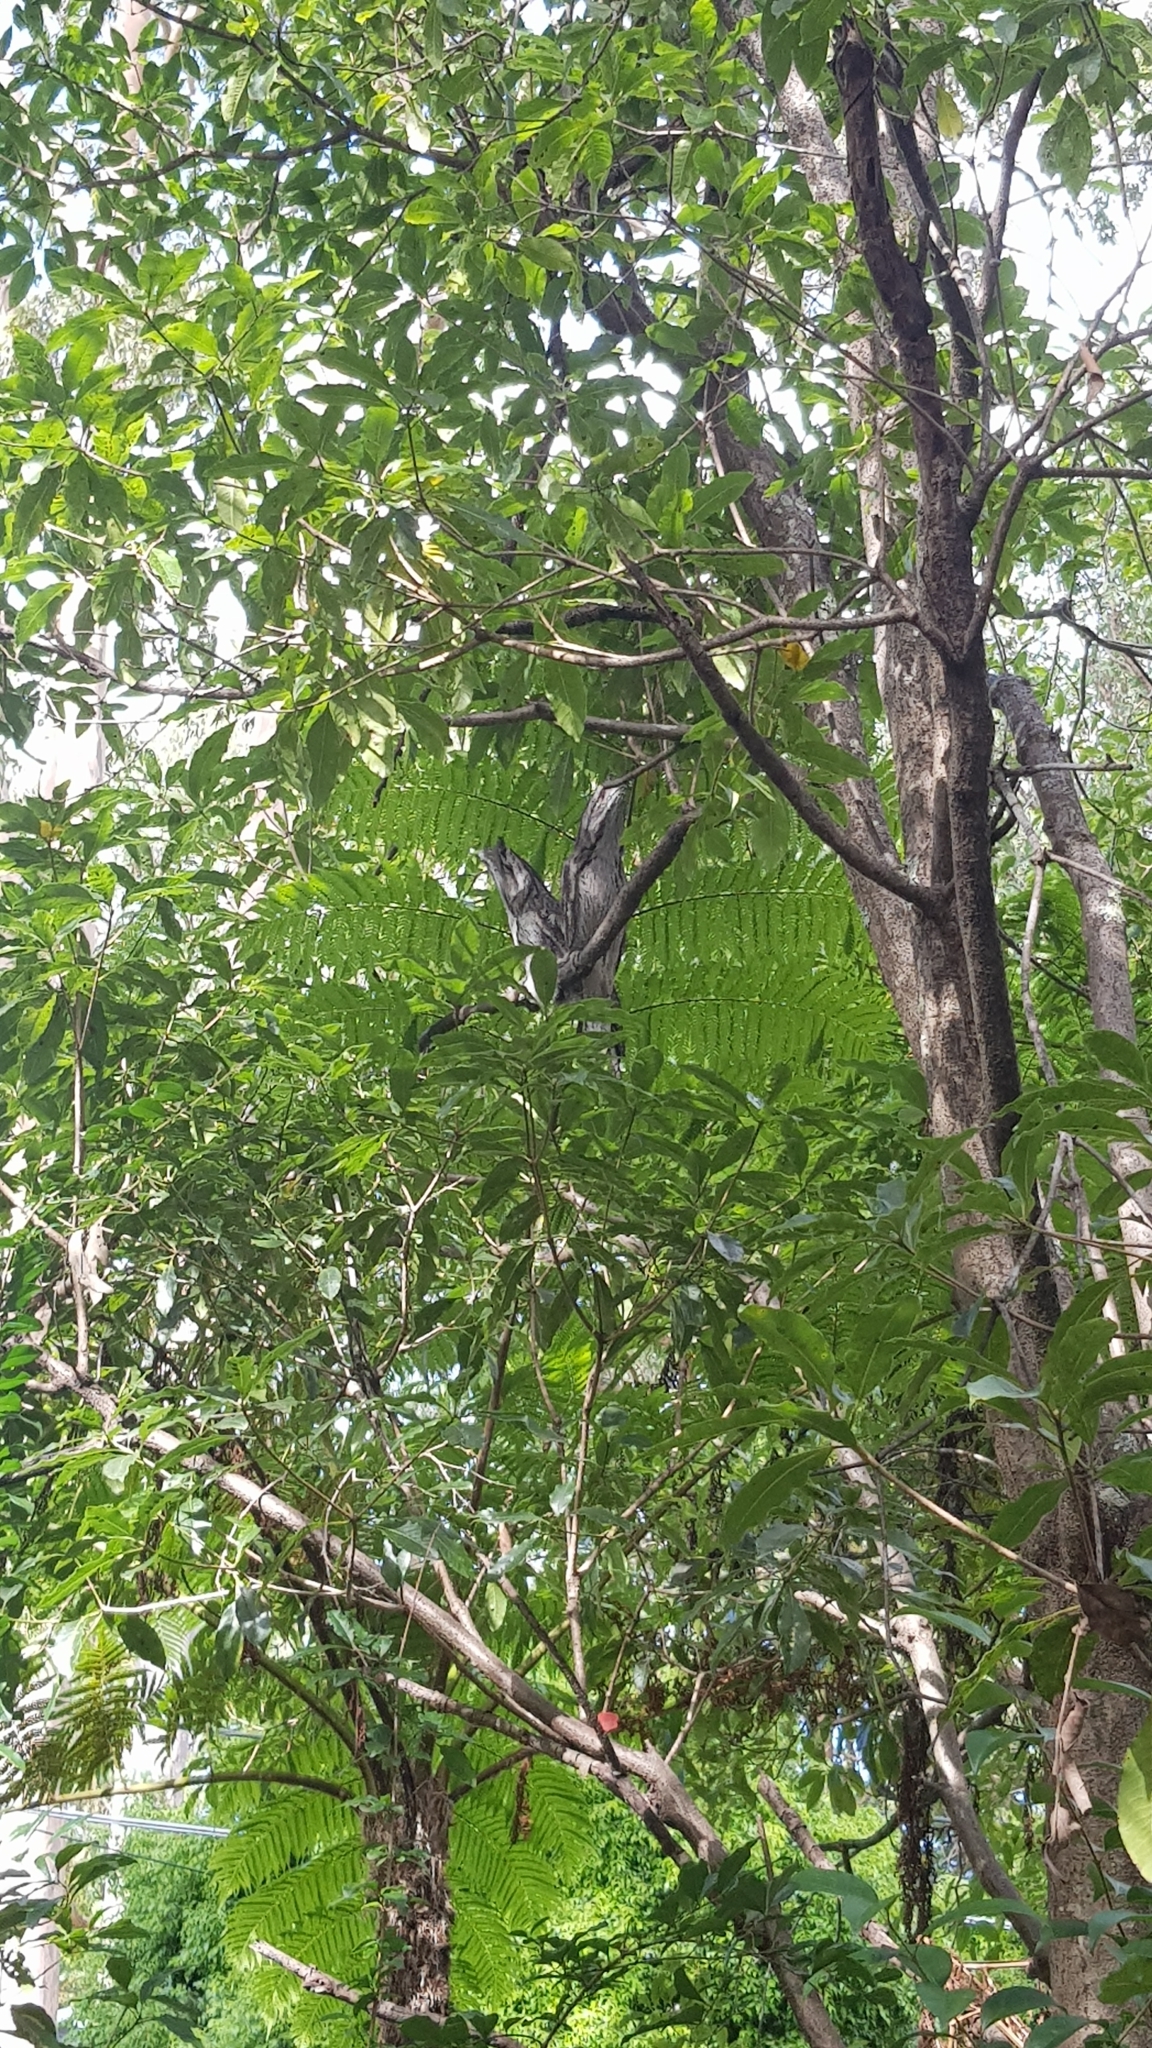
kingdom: Animalia
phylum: Chordata
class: Aves
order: Caprimulgiformes
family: Podargidae
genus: Podargus
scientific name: Podargus strigoides
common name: Tawny frogmouth
